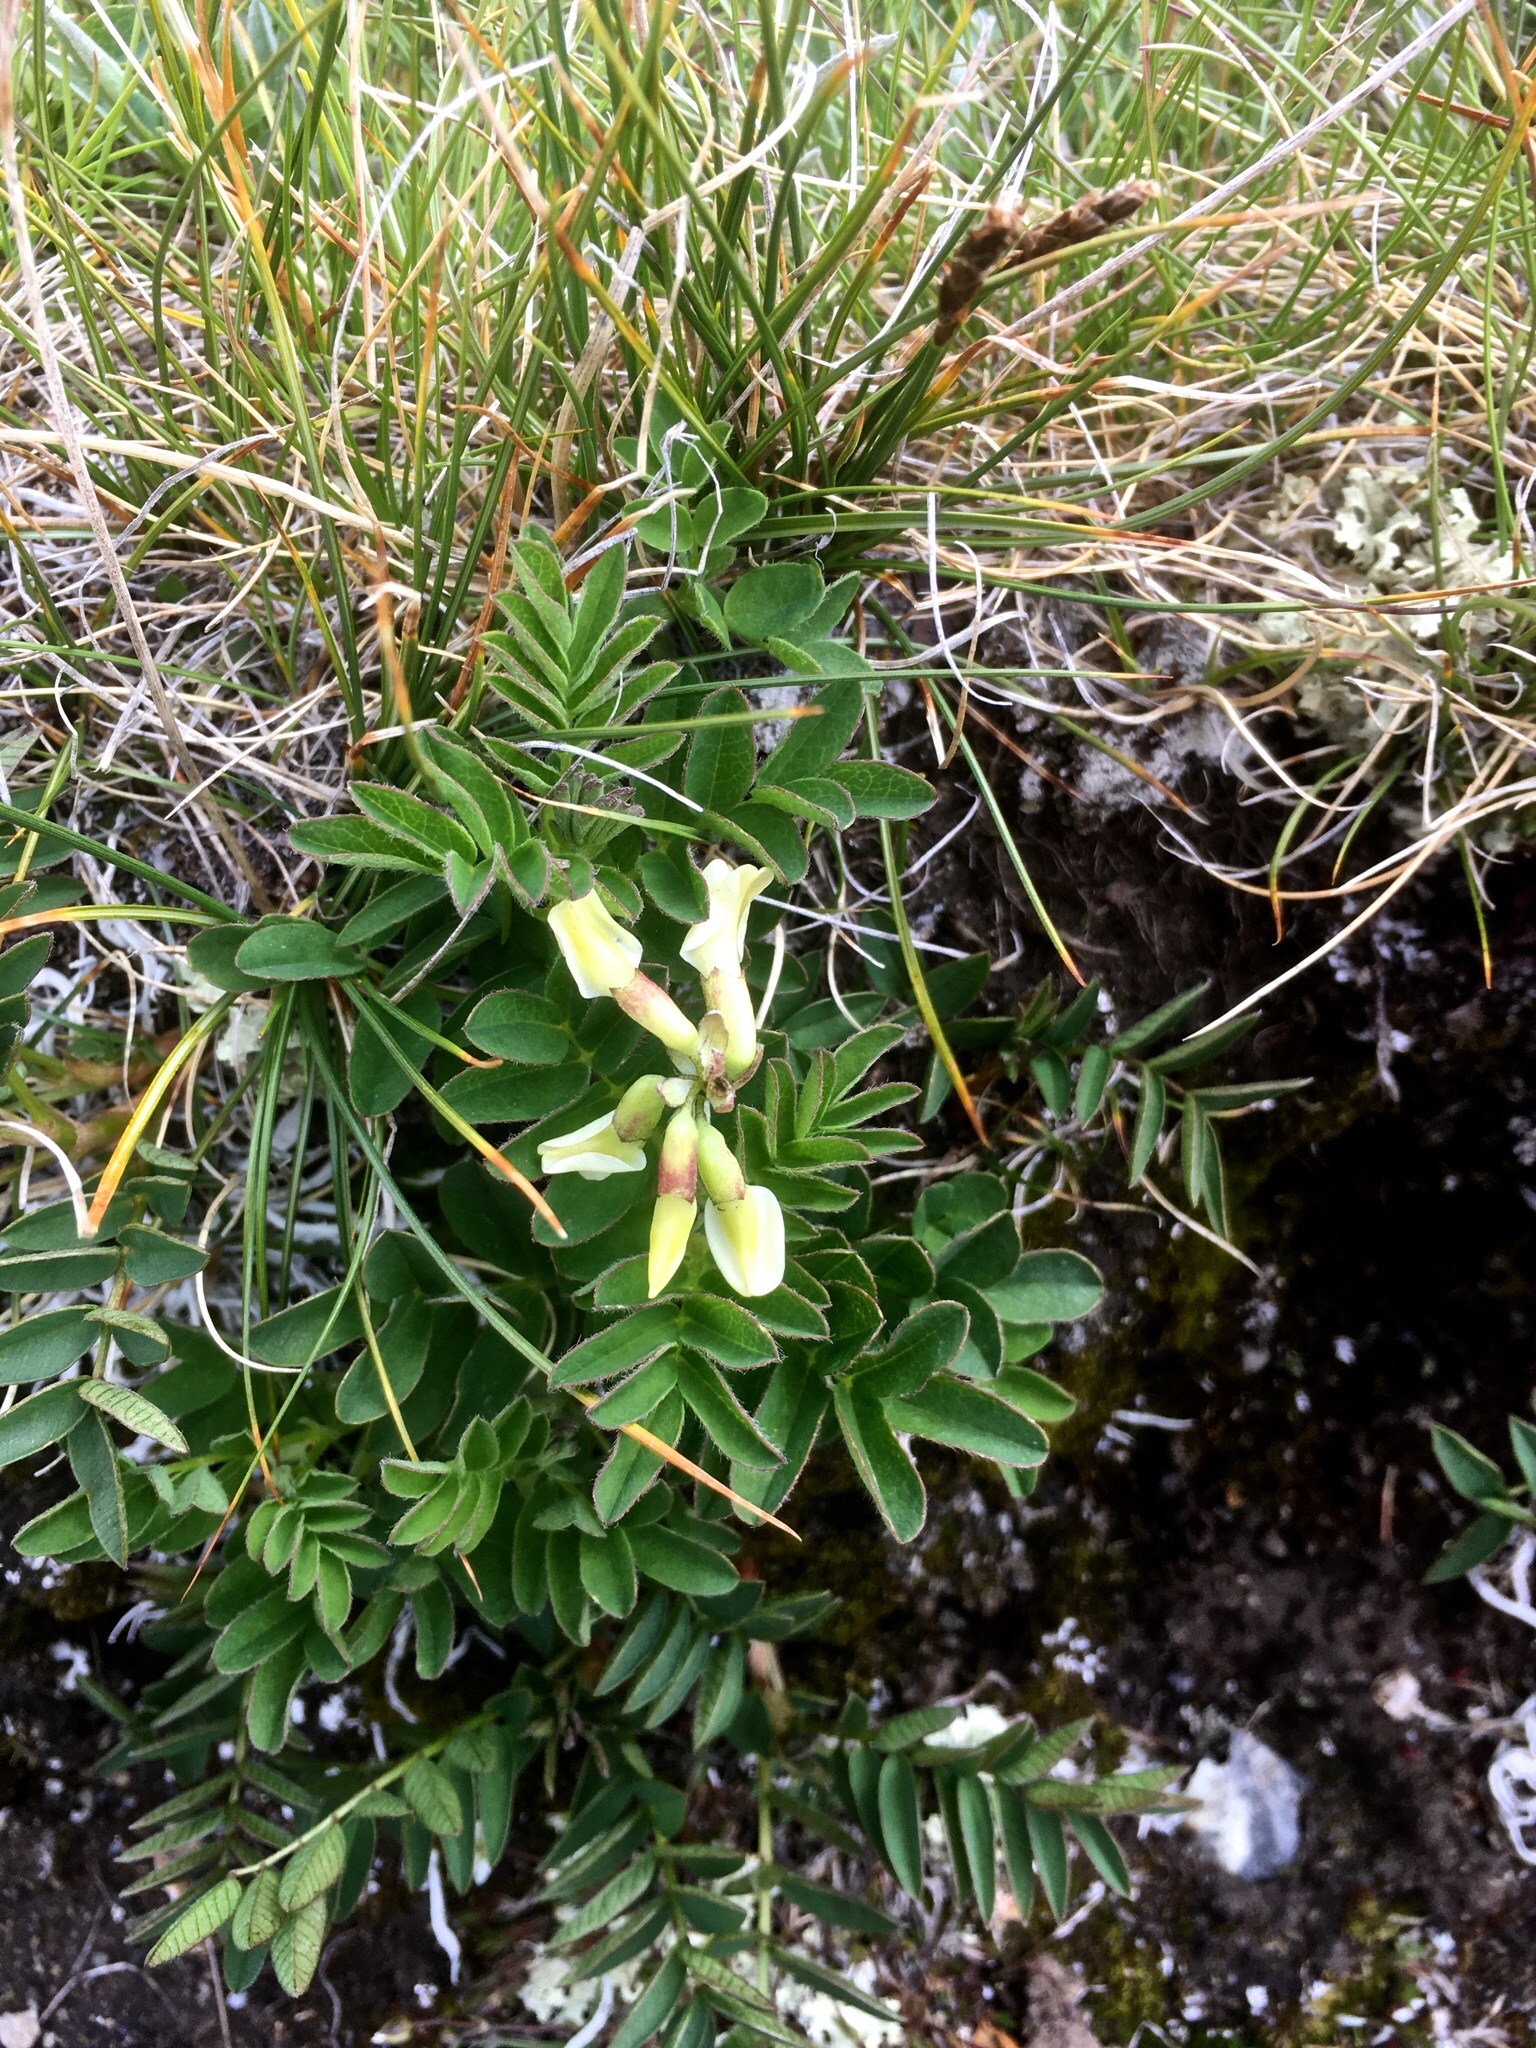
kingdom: Plantae
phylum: Tracheophyta
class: Magnoliopsida
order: Fabales
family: Fabaceae
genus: Astragalus
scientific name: Astragalus frigidus
